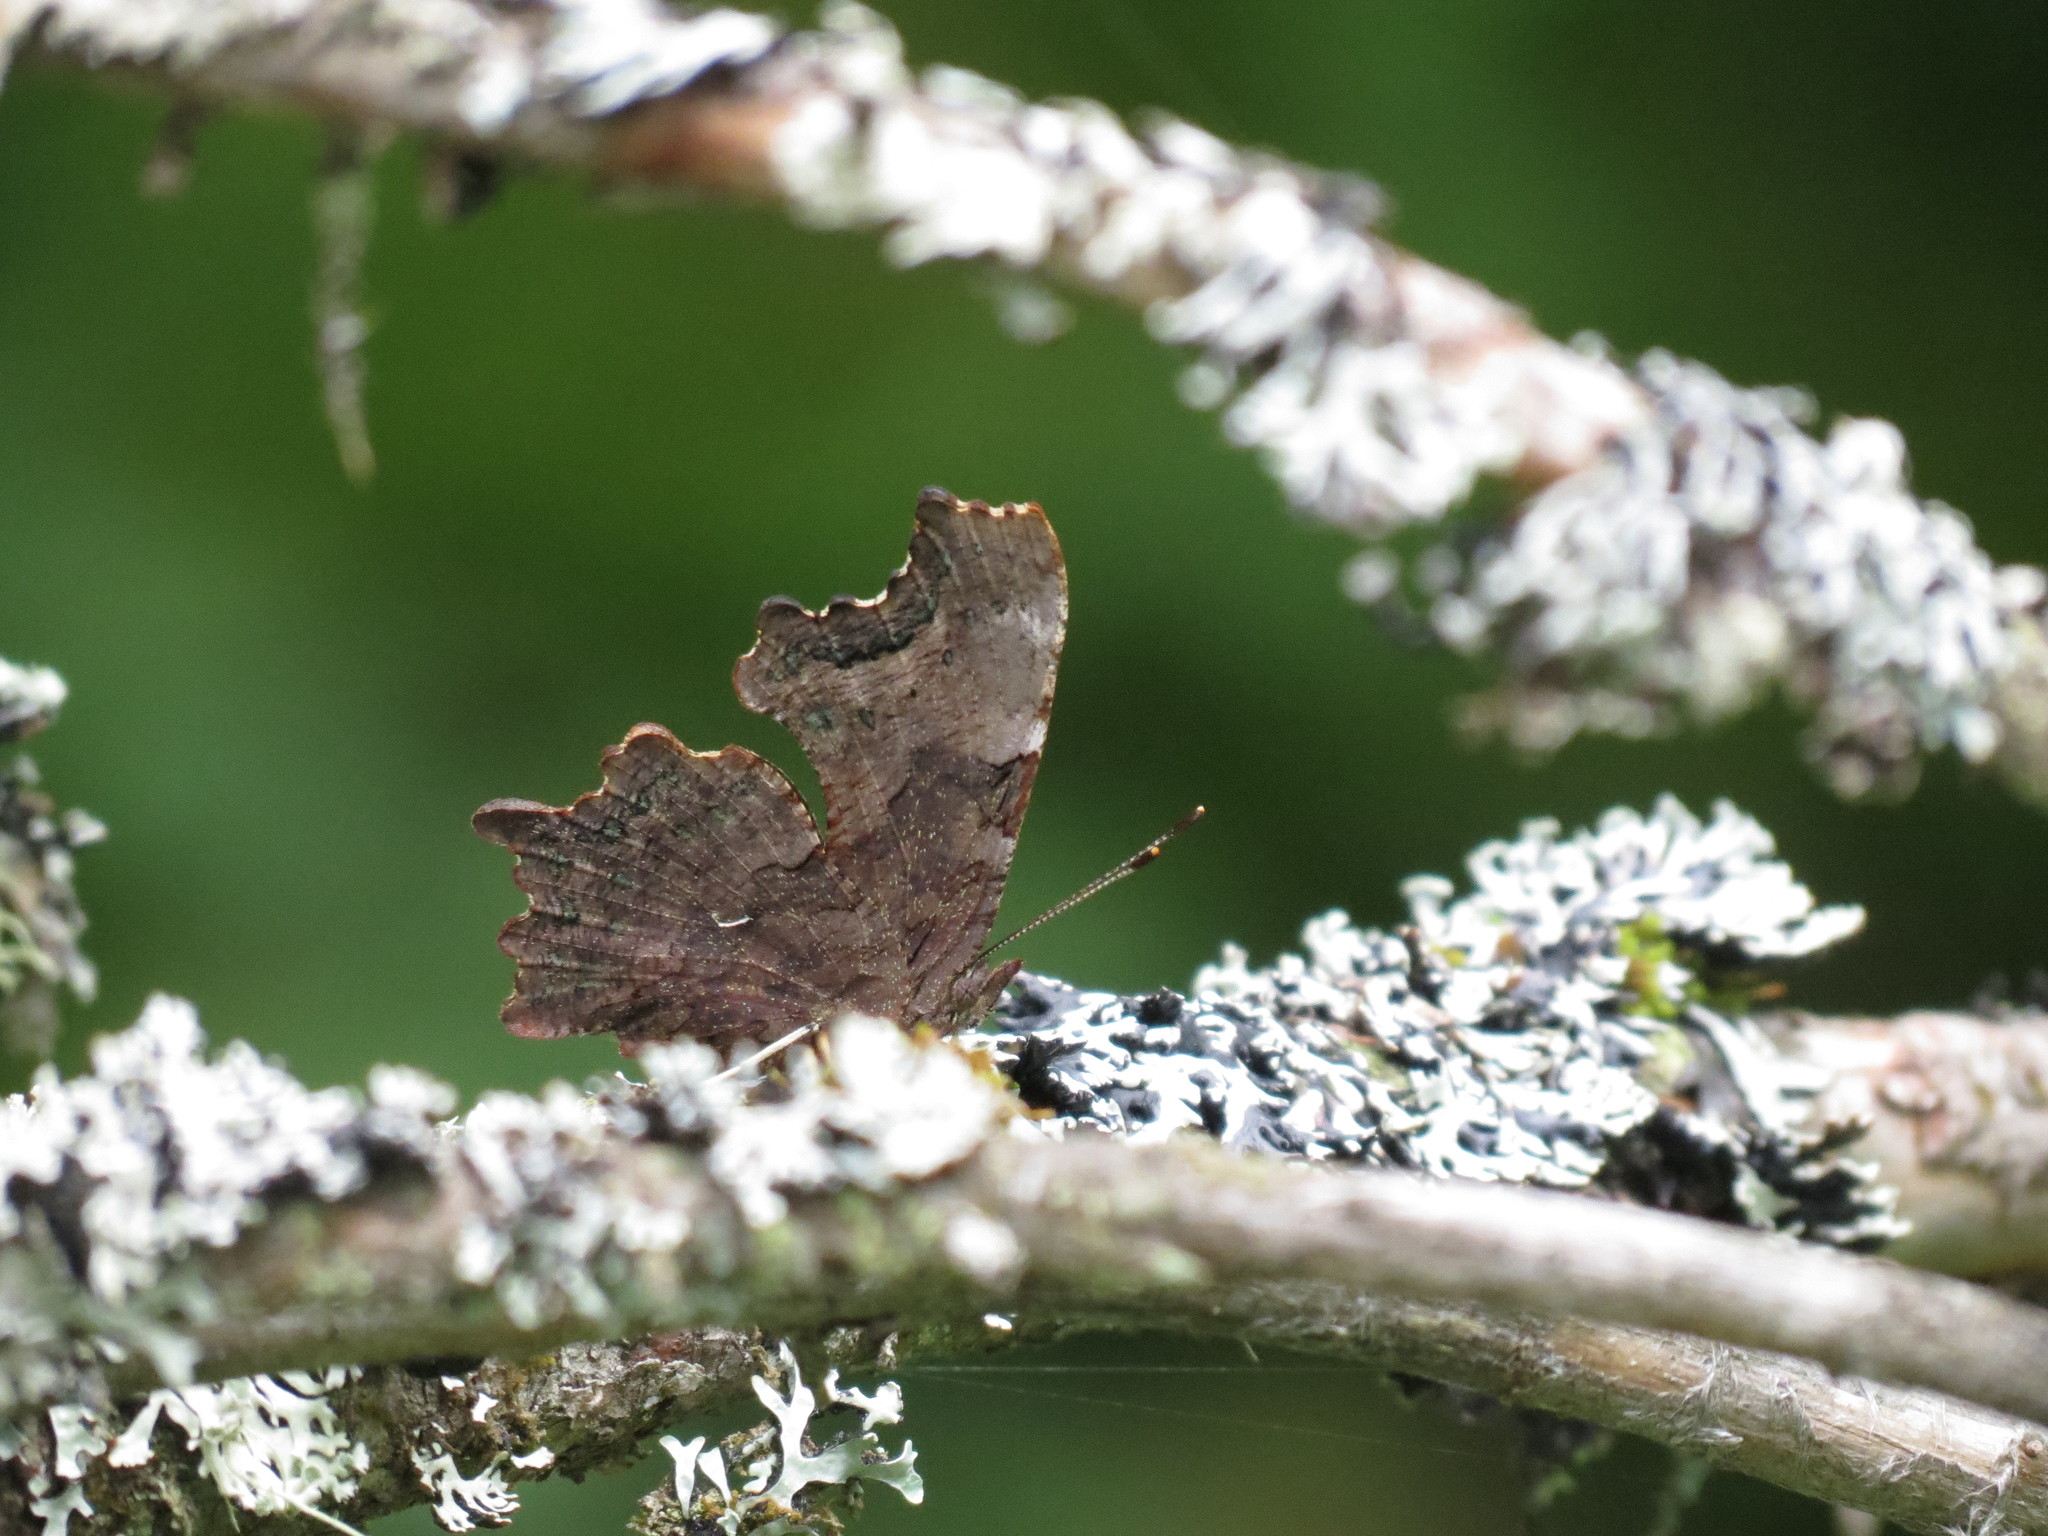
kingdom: Animalia
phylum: Arthropoda
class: Insecta
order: Lepidoptera
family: Nymphalidae
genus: Polygonia
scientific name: Polygonia faunus
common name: Green comma
